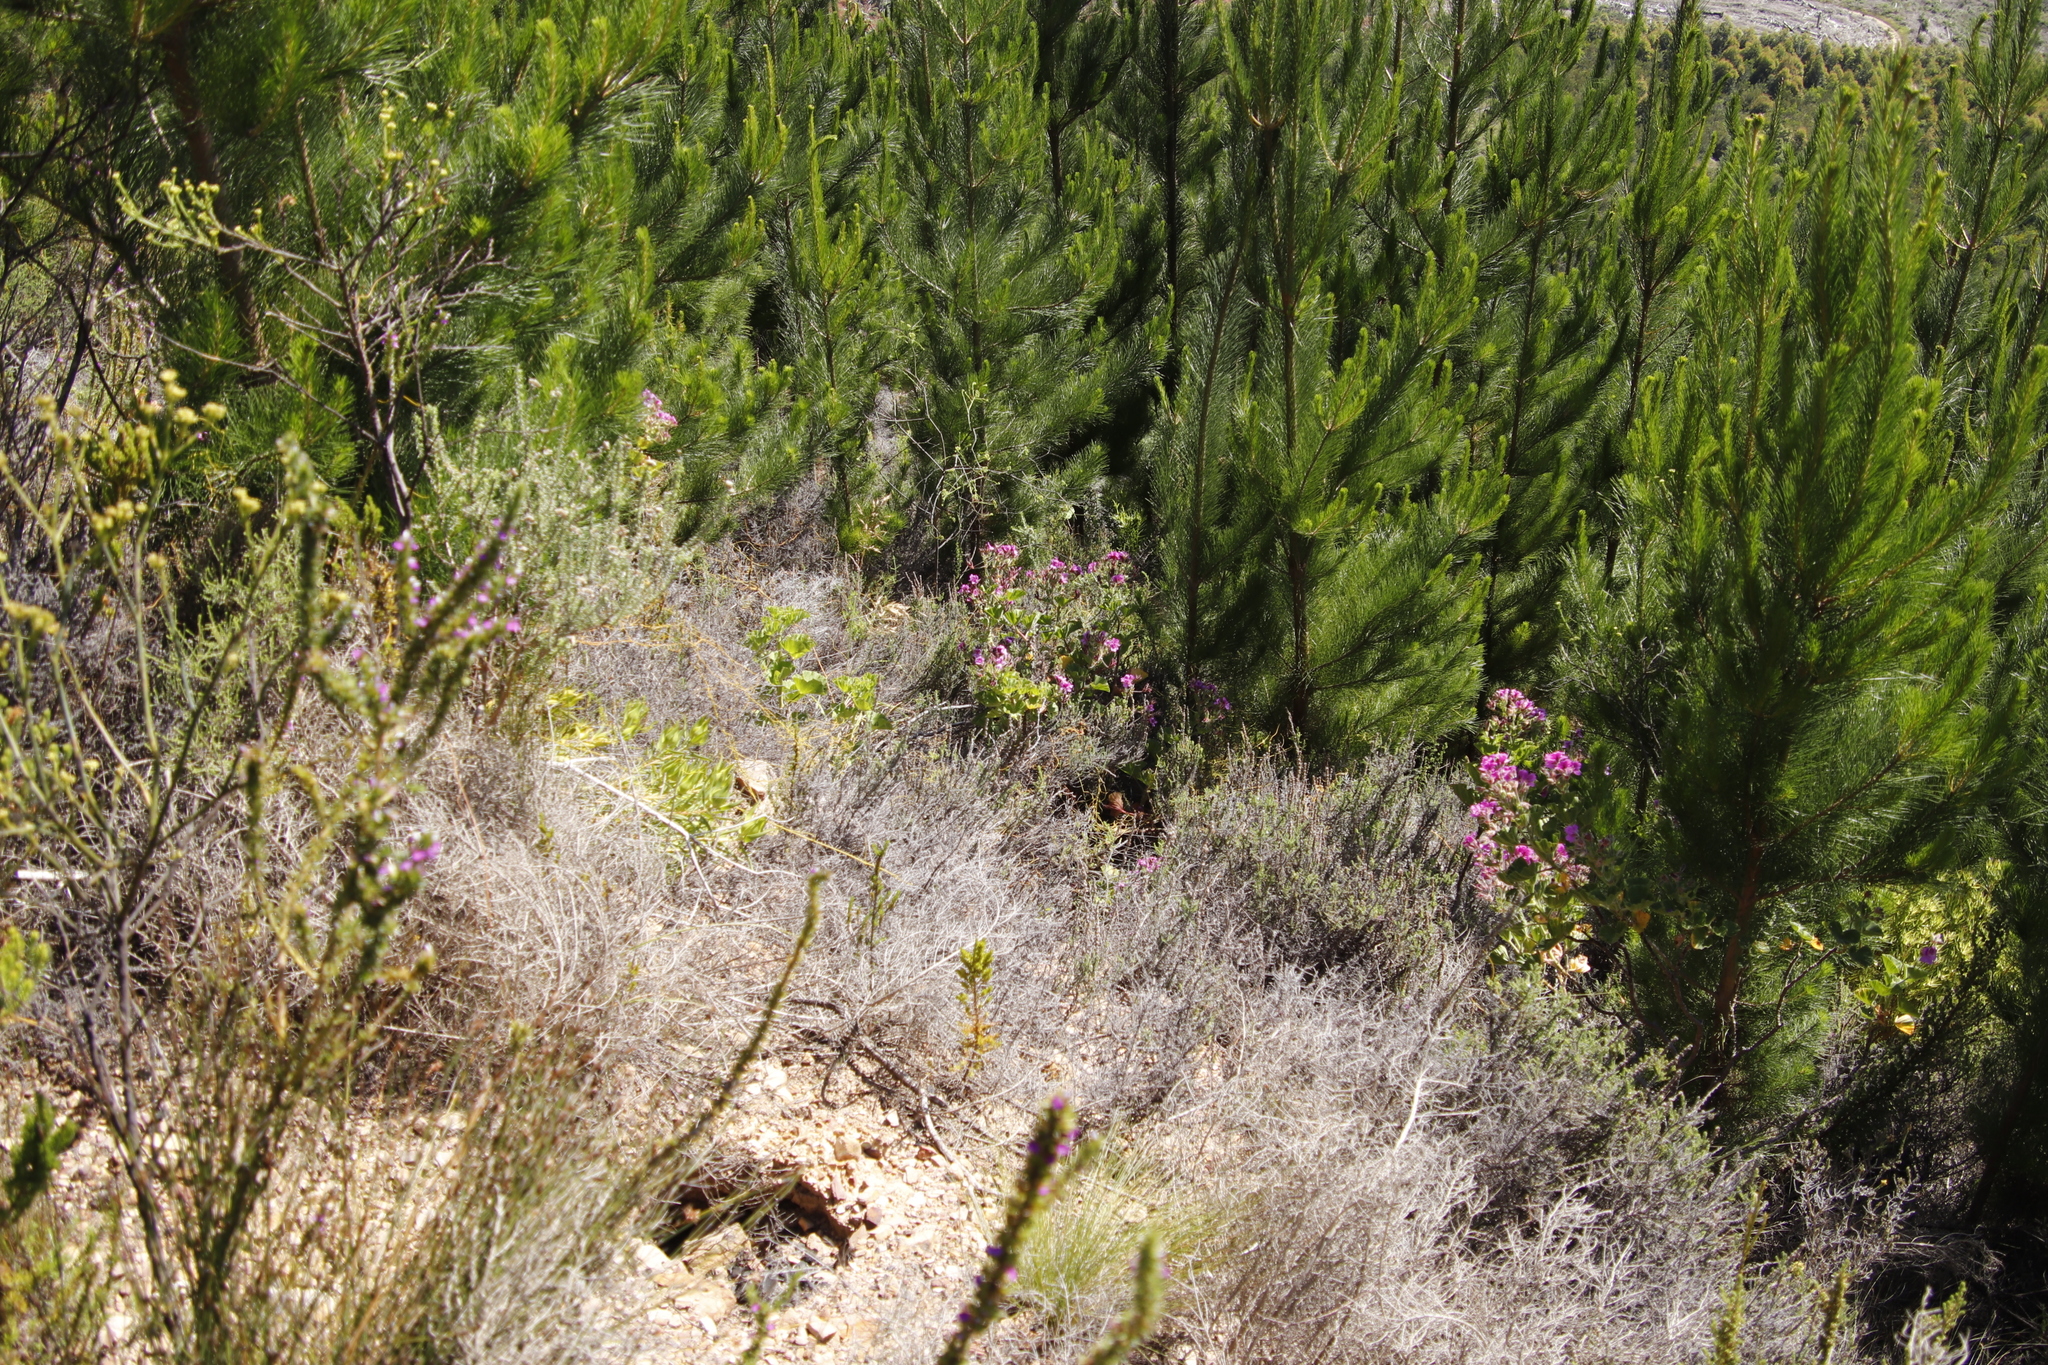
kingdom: Plantae
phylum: Tracheophyta
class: Magnoliopsida
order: Geraniales
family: Geraniaceae
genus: Pelargonium
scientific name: Pelargonium cucullatum
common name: Tree pelargonium
